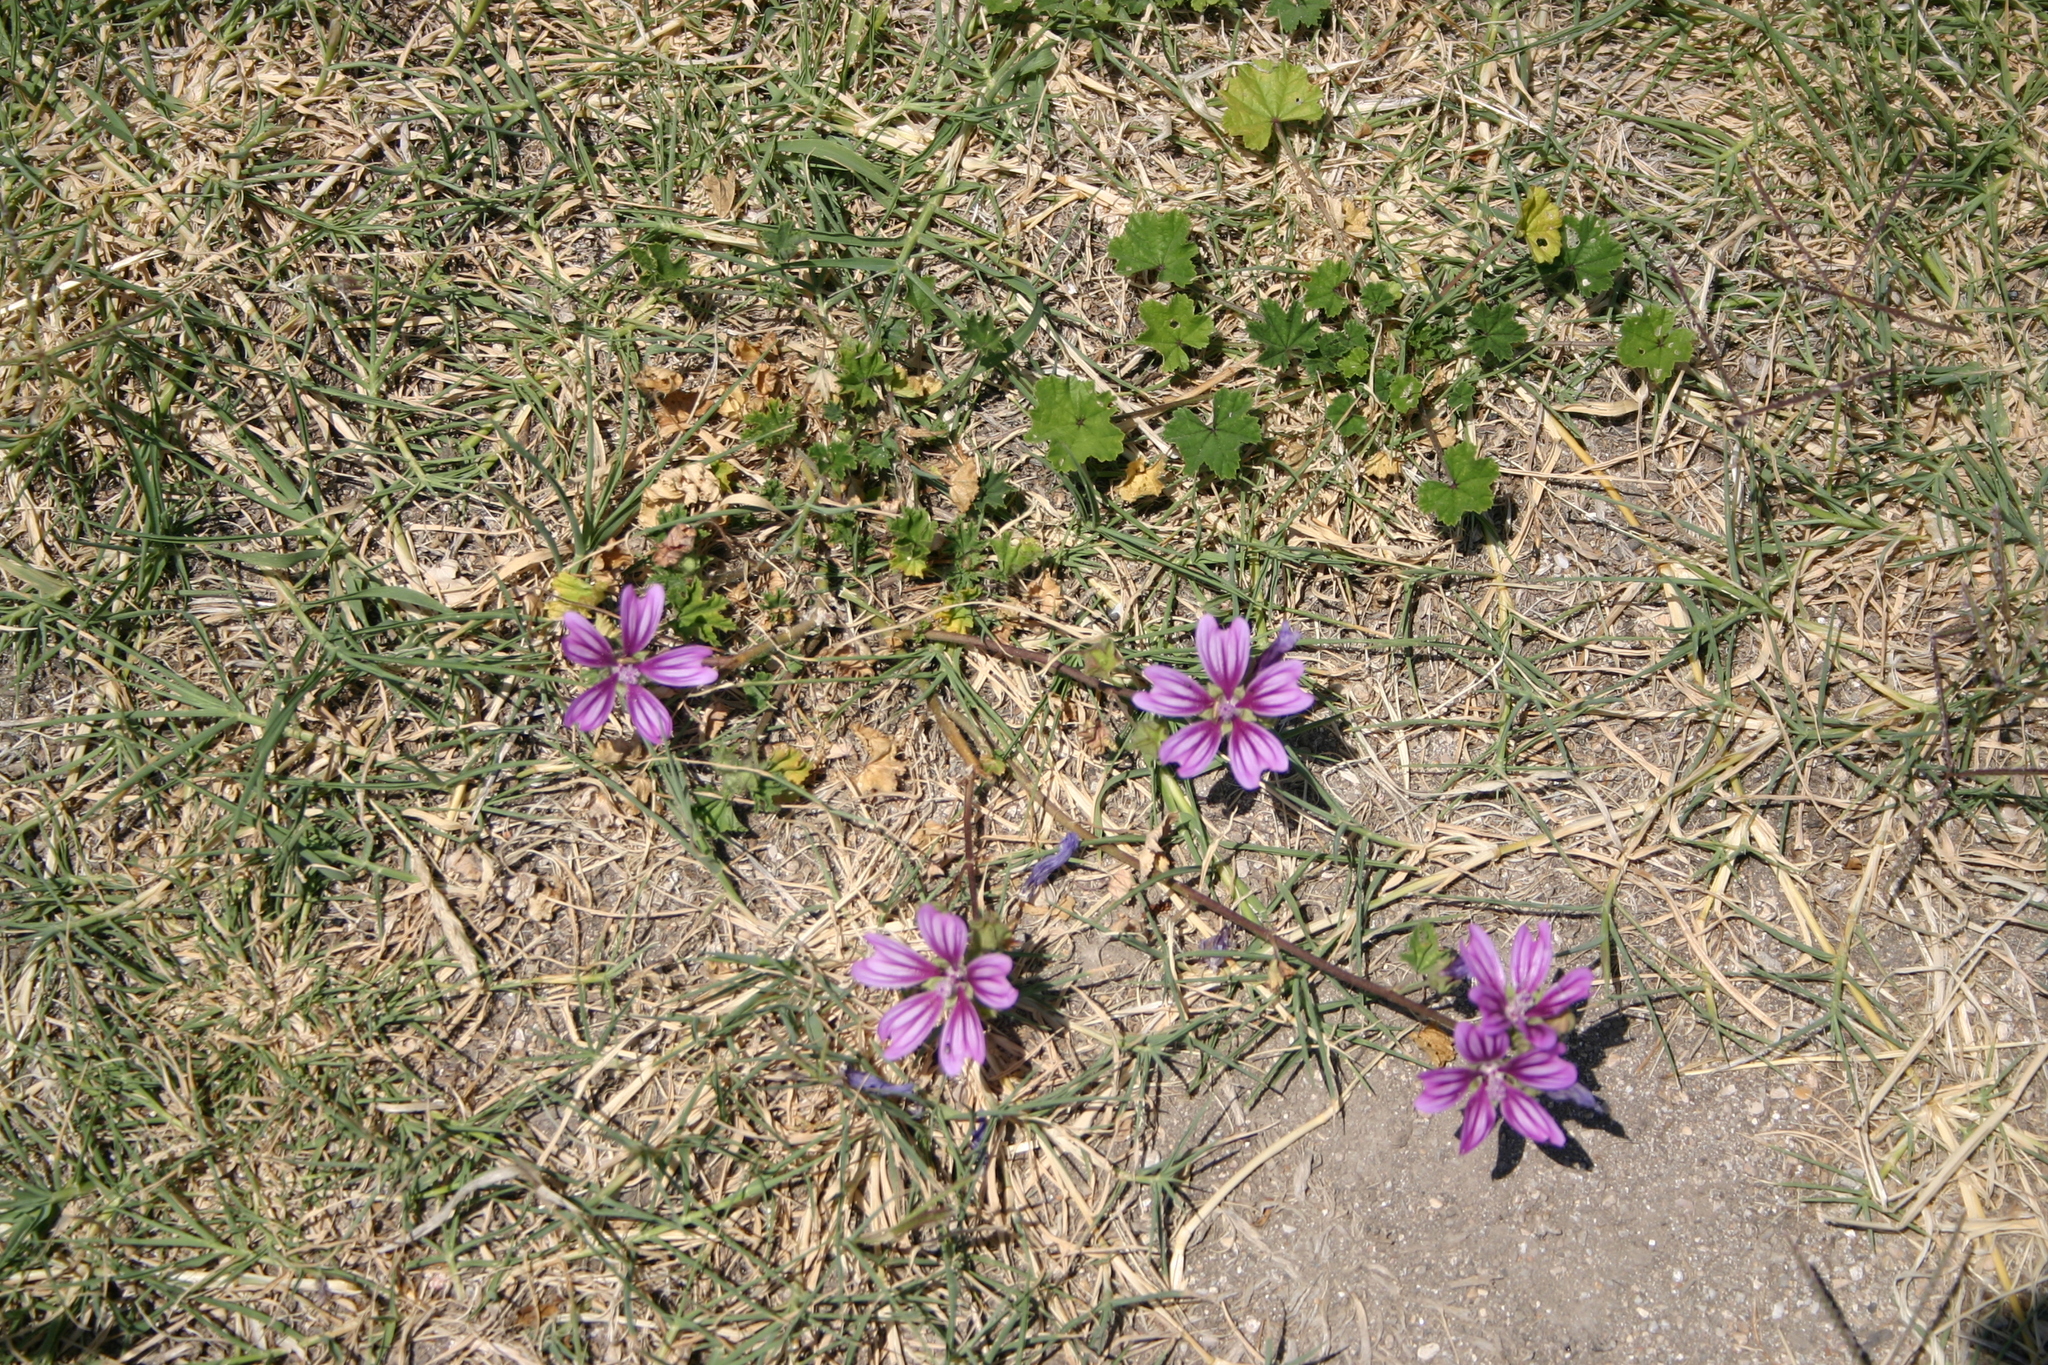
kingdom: Plantae
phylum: Tracheophyta
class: Magnoliopsida
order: Malvales
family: Malvaceae
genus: Malva
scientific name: Malva sylvestris
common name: Common mallow
